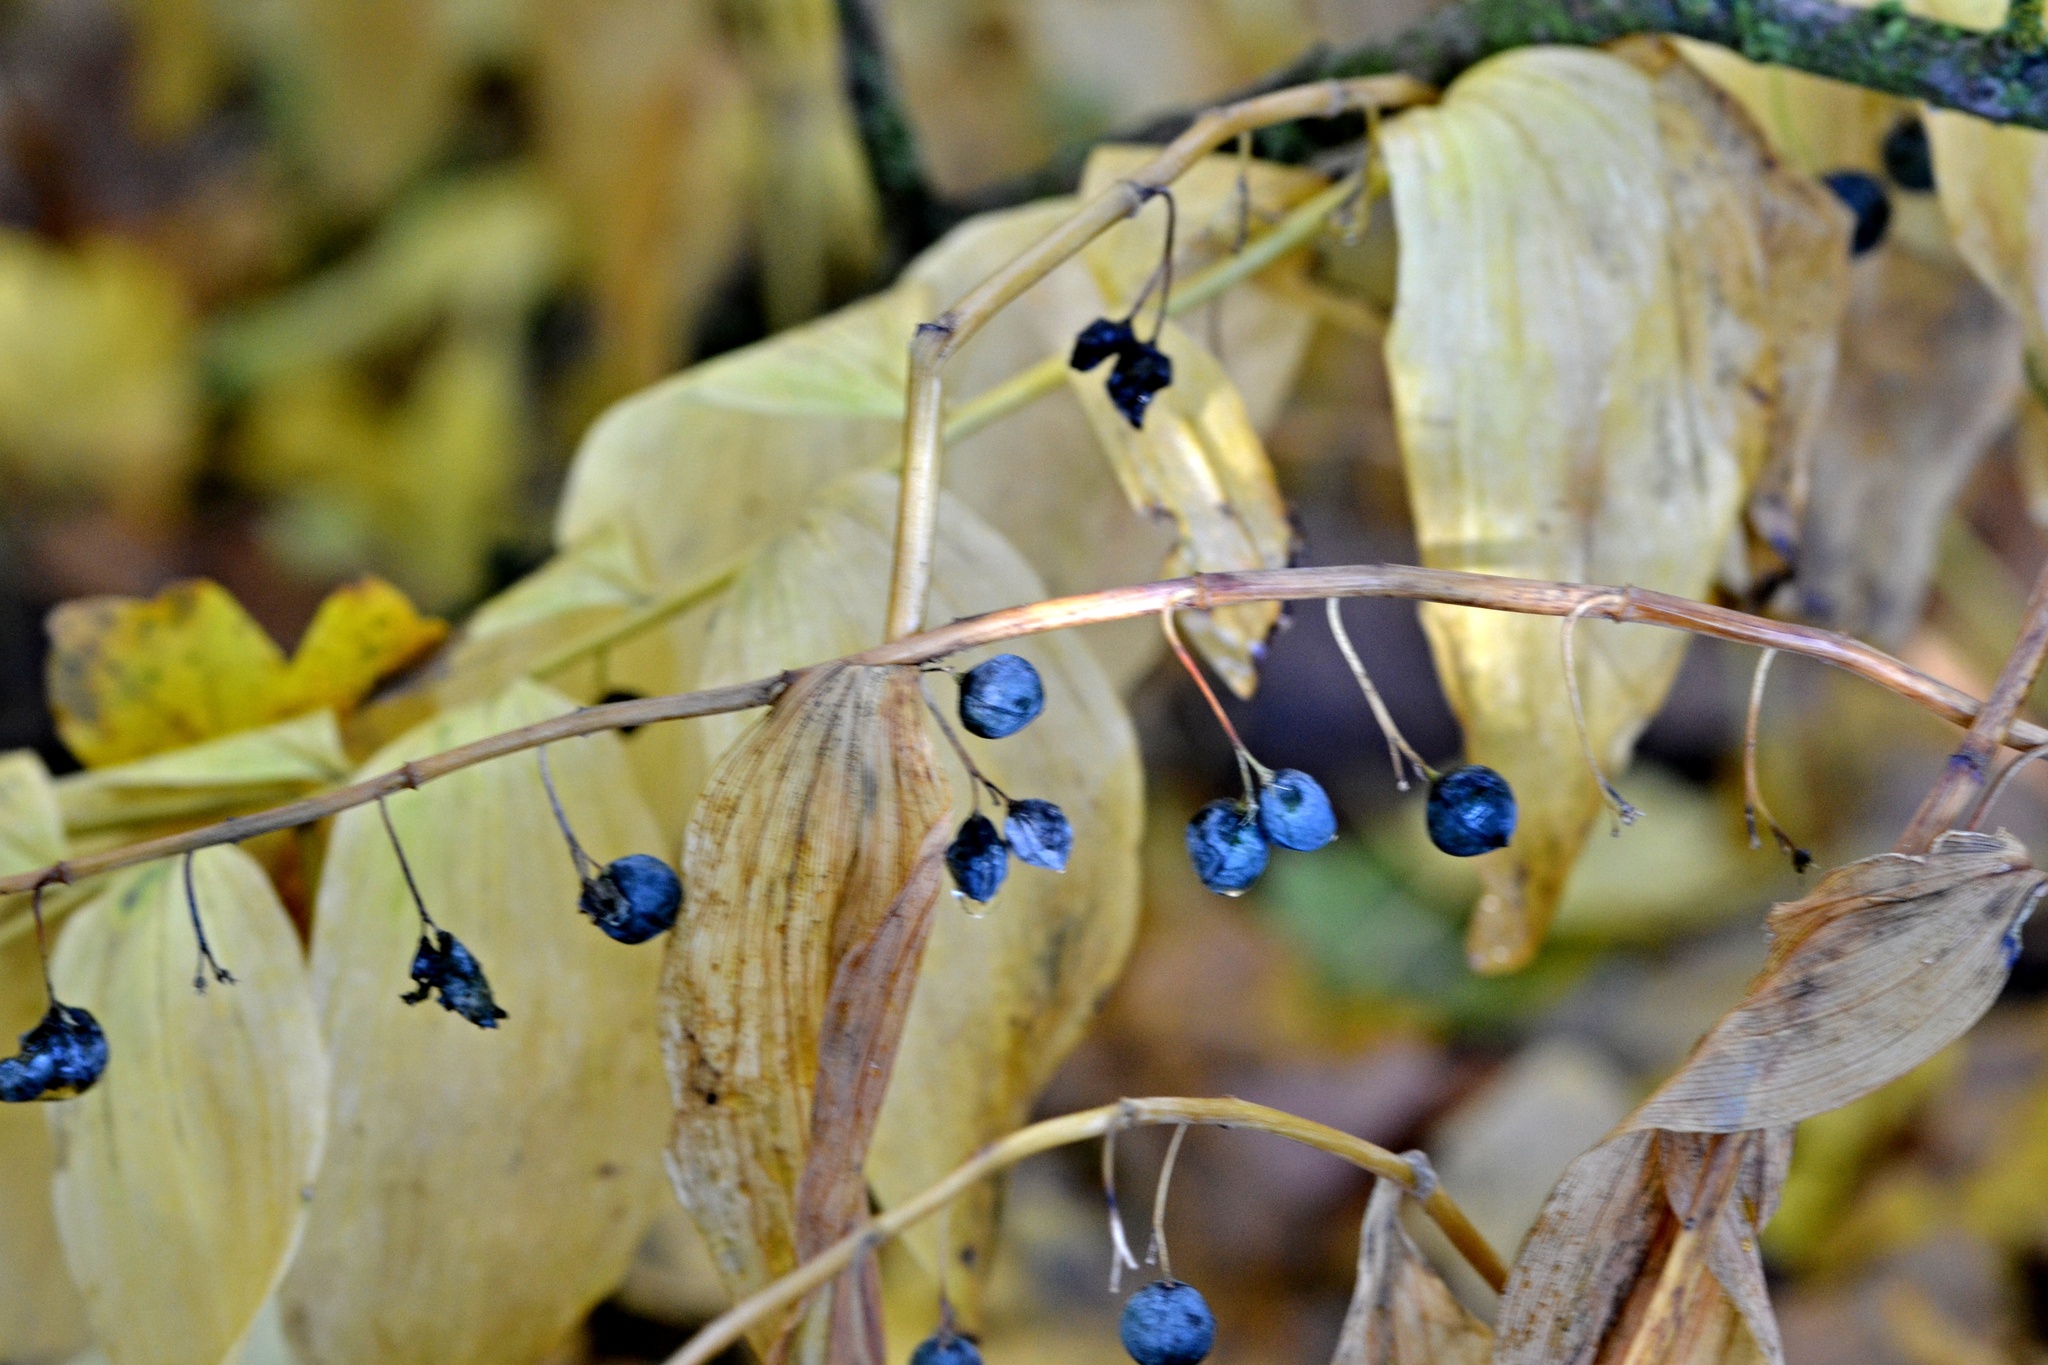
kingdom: Plantae
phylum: Tracheophyta
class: Liliopsida
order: Asparagales
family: Asparagaceae
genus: Polygonatum
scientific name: Polygonatum multiflorum
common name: Solomon's-seal
